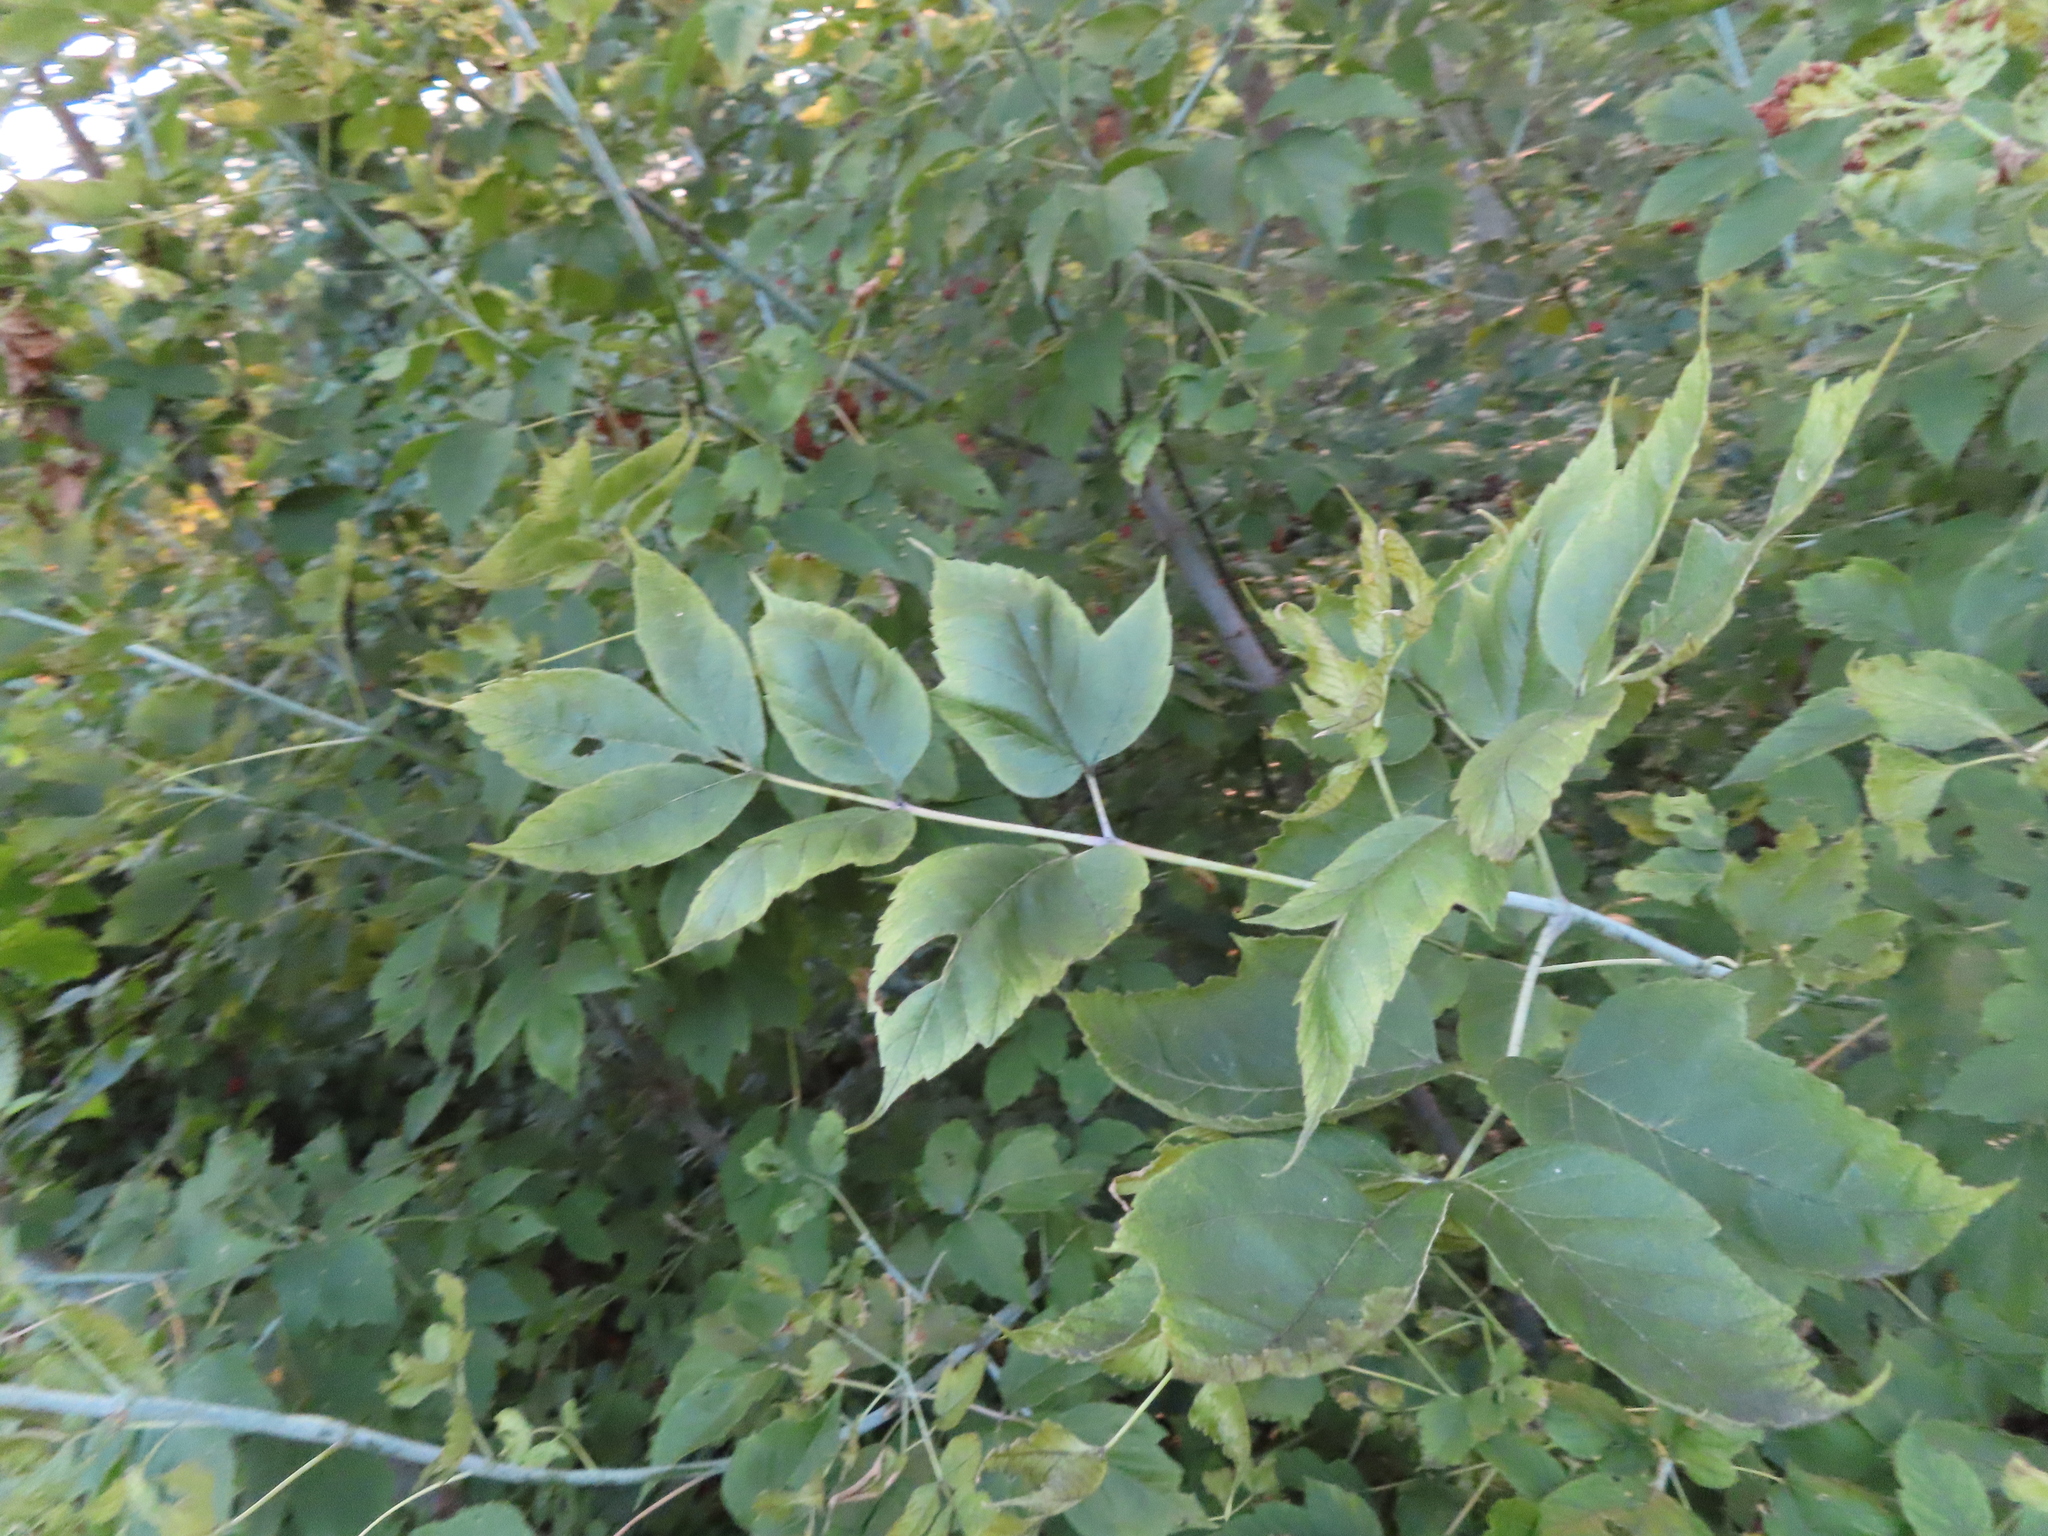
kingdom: Plantae
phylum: Tracheophyta
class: Magnoliopsida
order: Sapindales
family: Sapindaceae
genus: Acer
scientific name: Acer negundo
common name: Ashleaf maple
